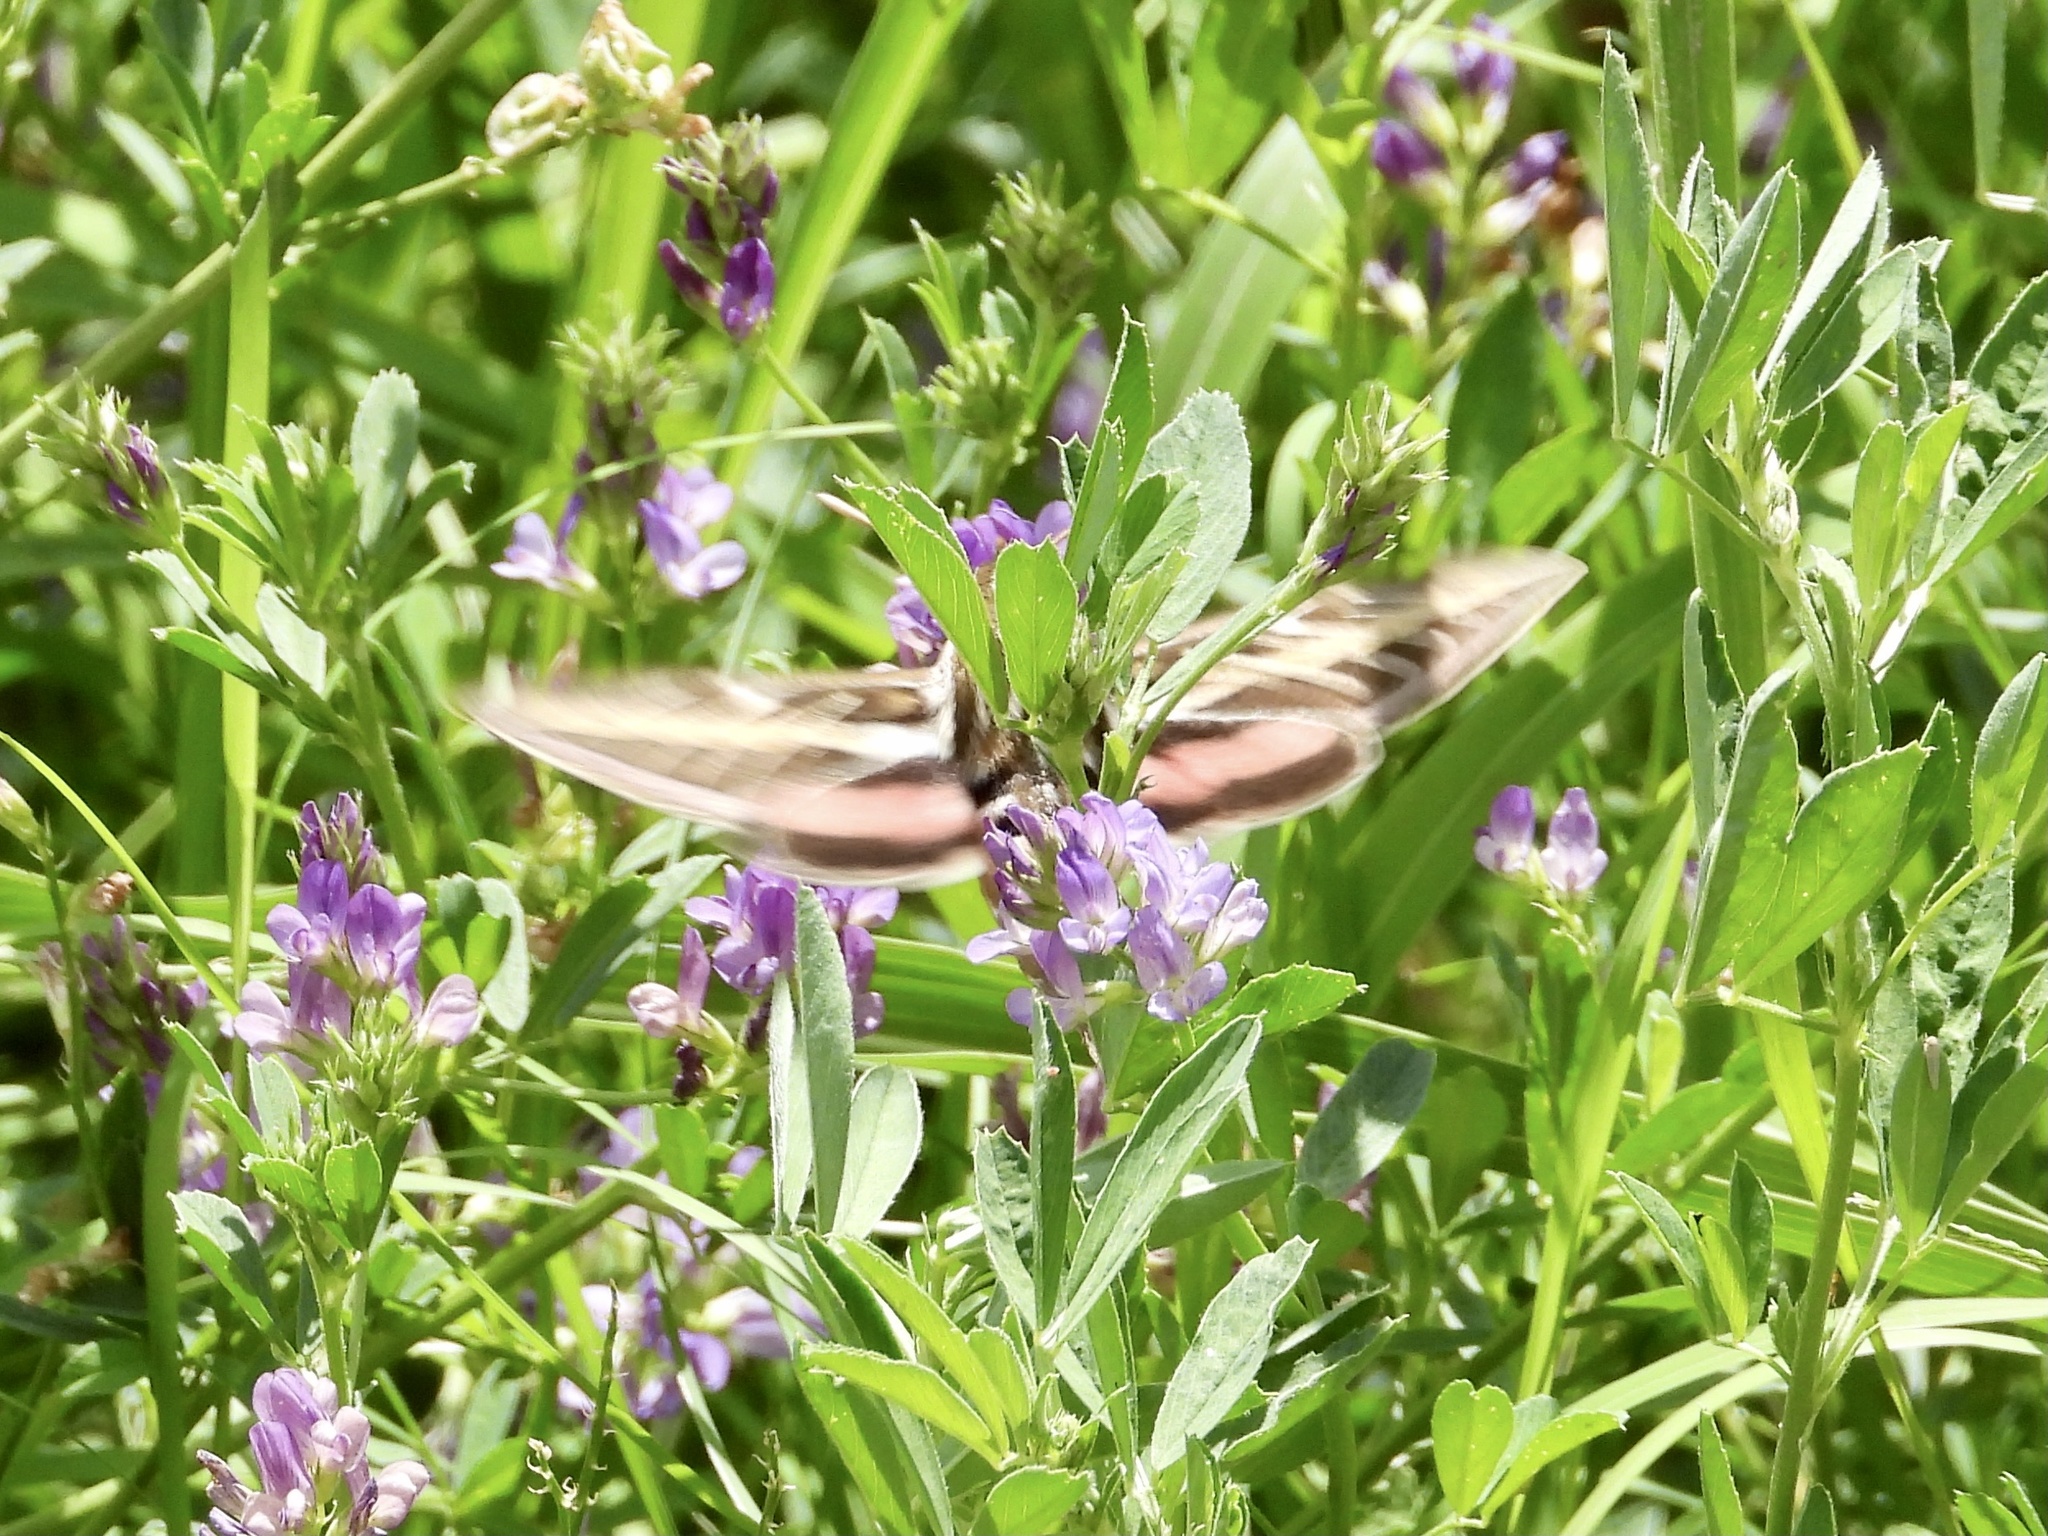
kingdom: Animalia
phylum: Arthropoda
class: Insecta
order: Lepidoptera
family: Sphingidae
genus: Hyles
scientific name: Hyles lineata
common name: White-lined sphinx
